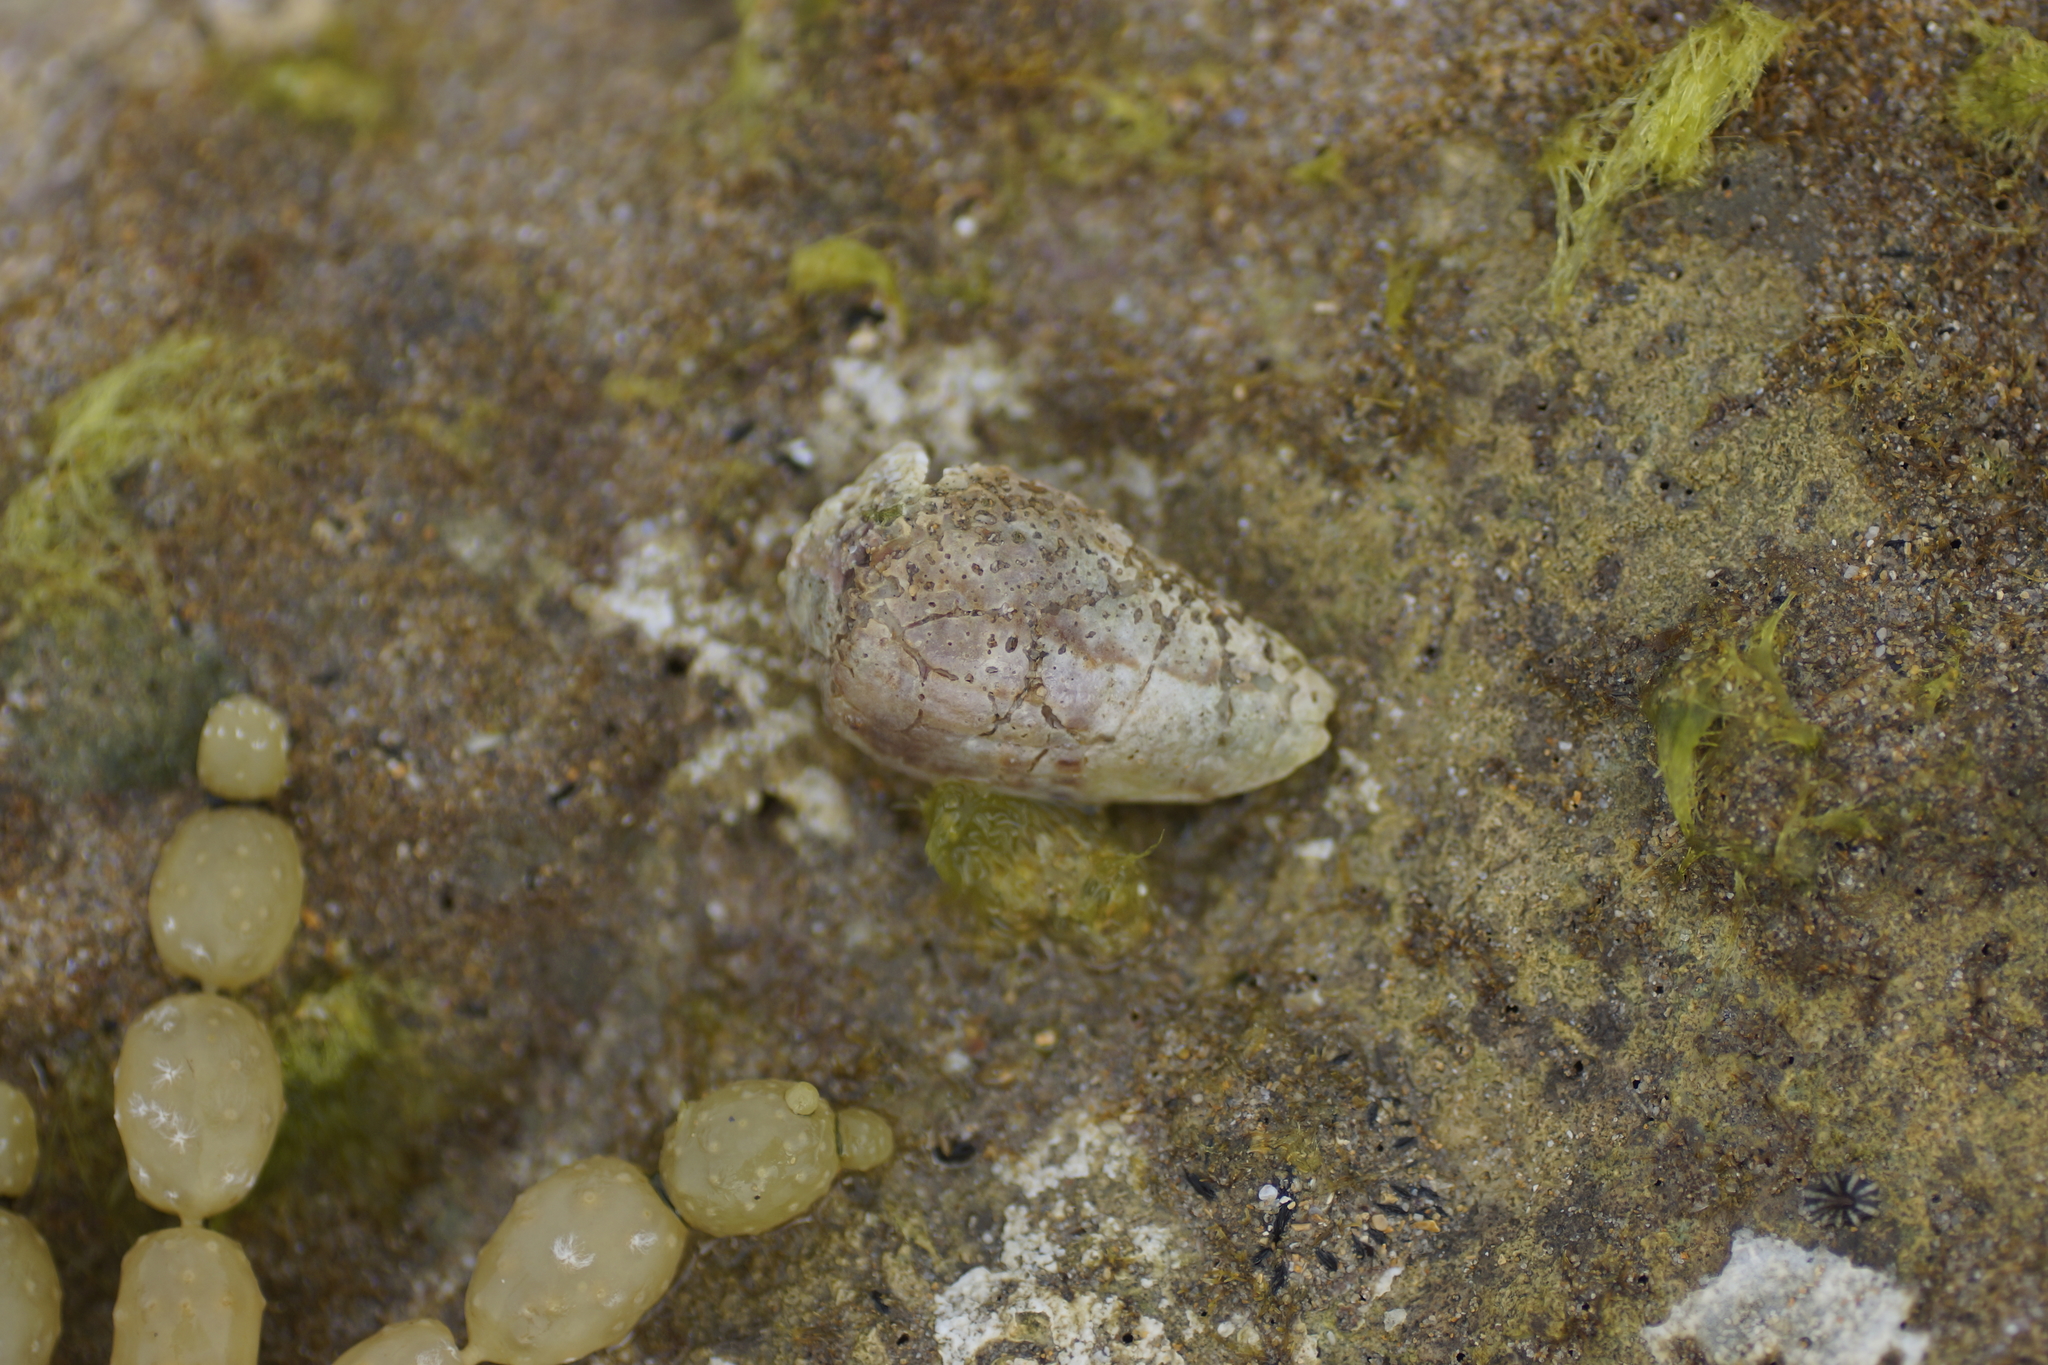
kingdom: Animalia
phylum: Mollusca
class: Gastropoda
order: Neogastropoda
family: Conidae
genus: Conus
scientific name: Conus anemone
